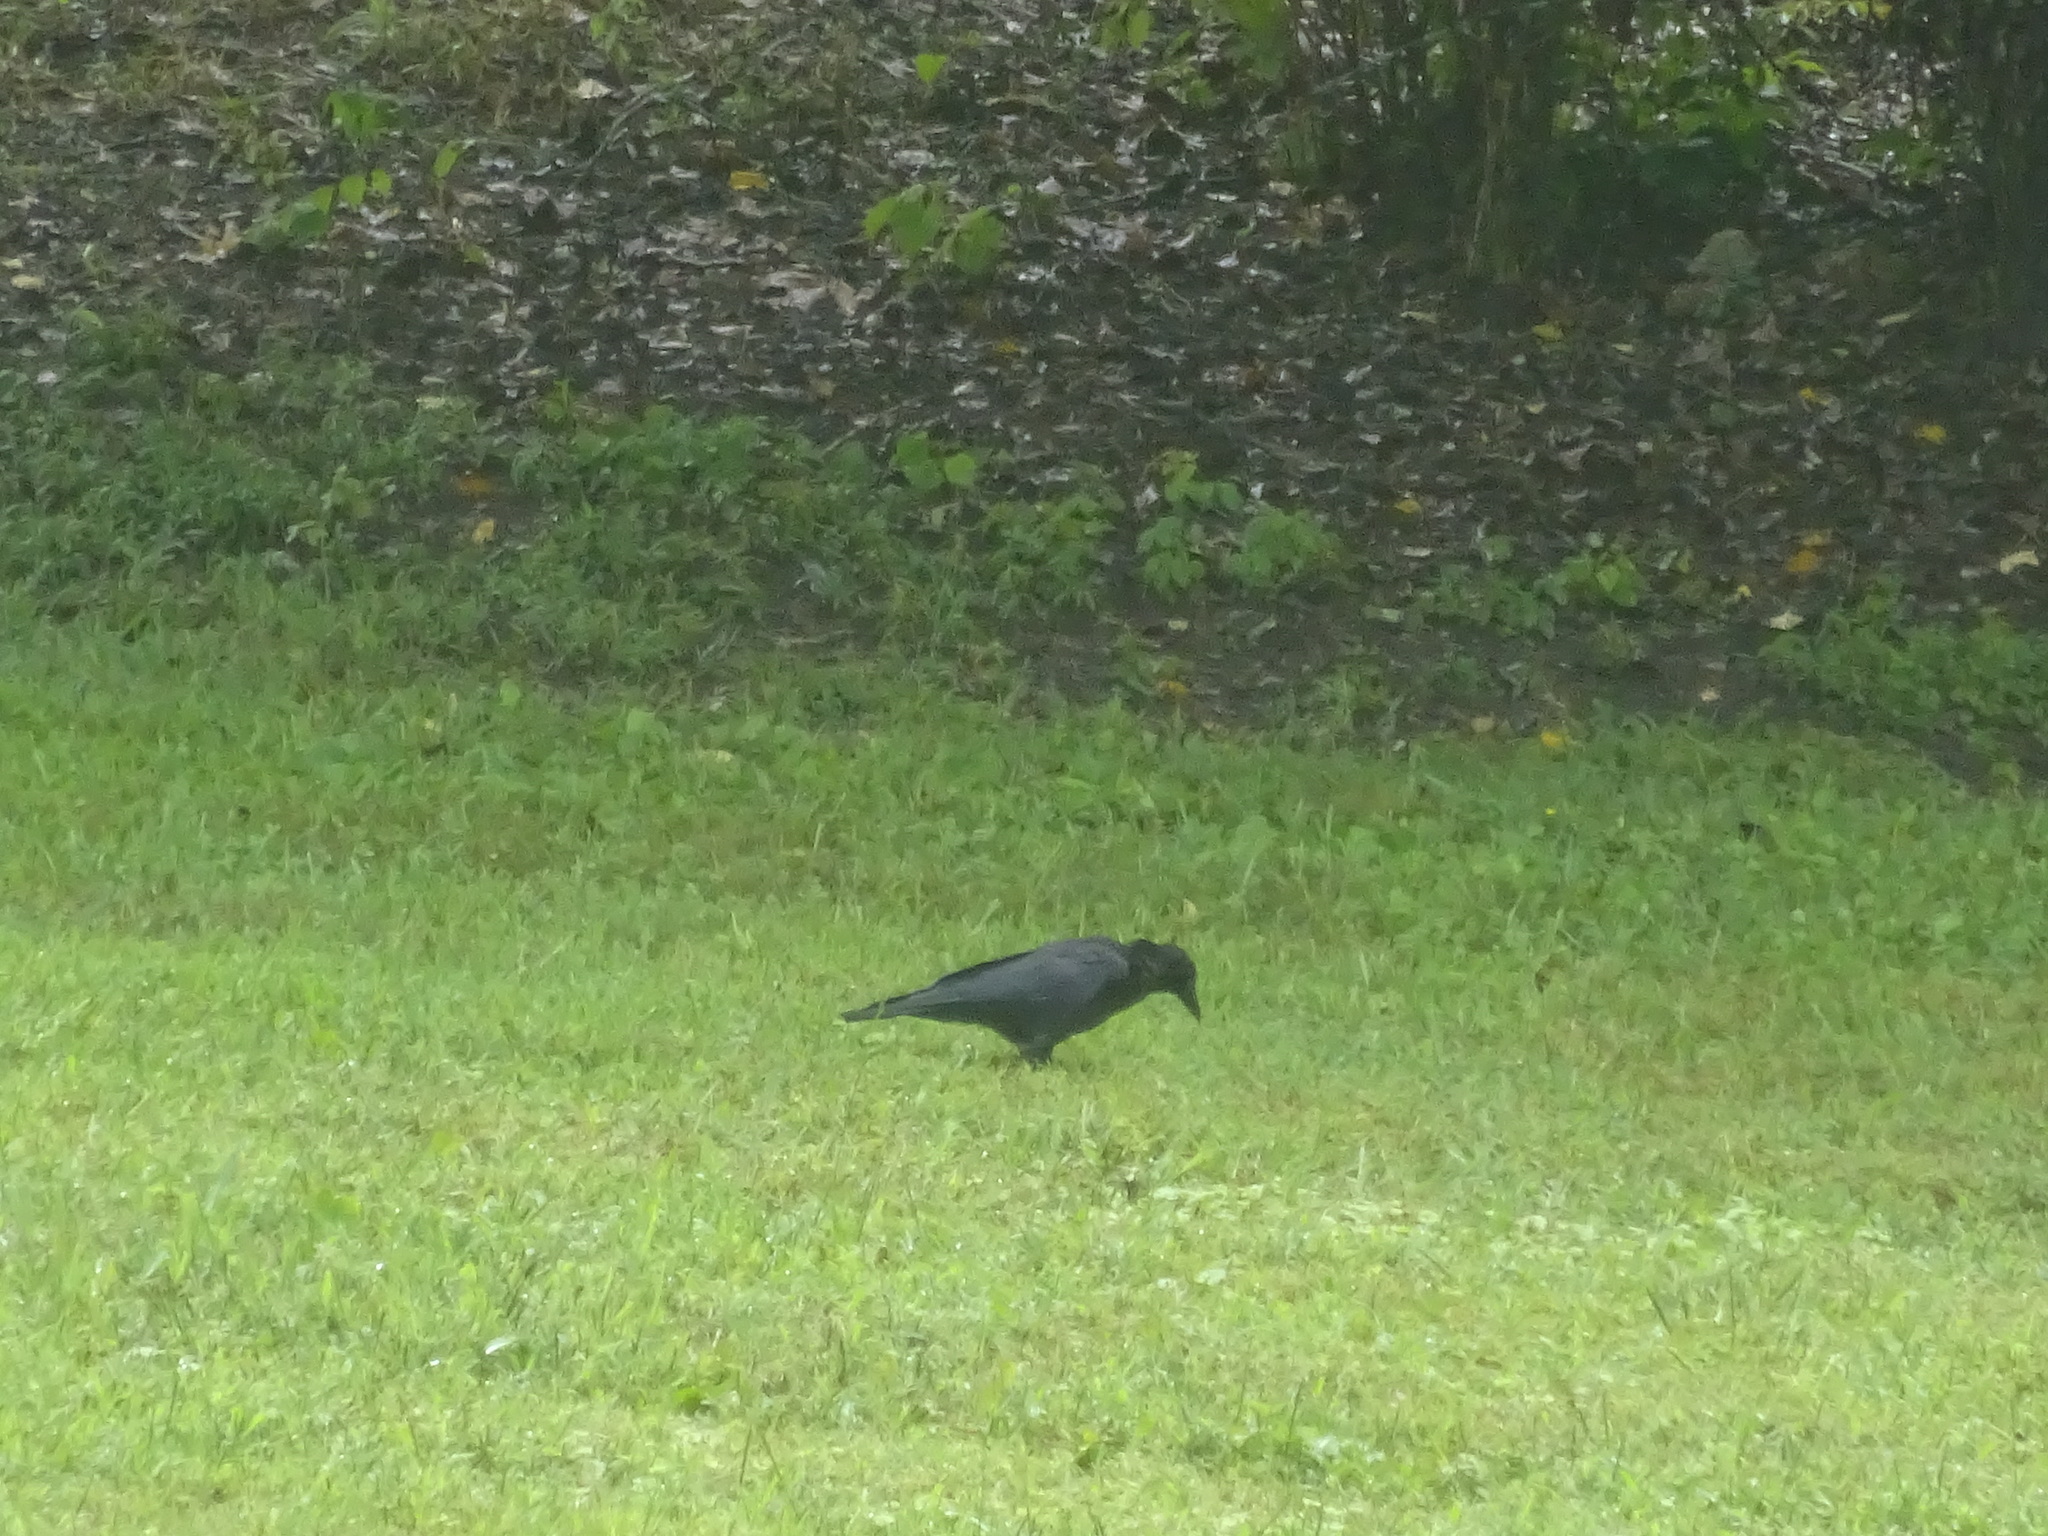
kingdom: Animalia
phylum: Chordata
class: Aves
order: Passeriformes
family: Corvidae
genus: Corvus
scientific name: Corvus brachyrhynchos
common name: American crow
